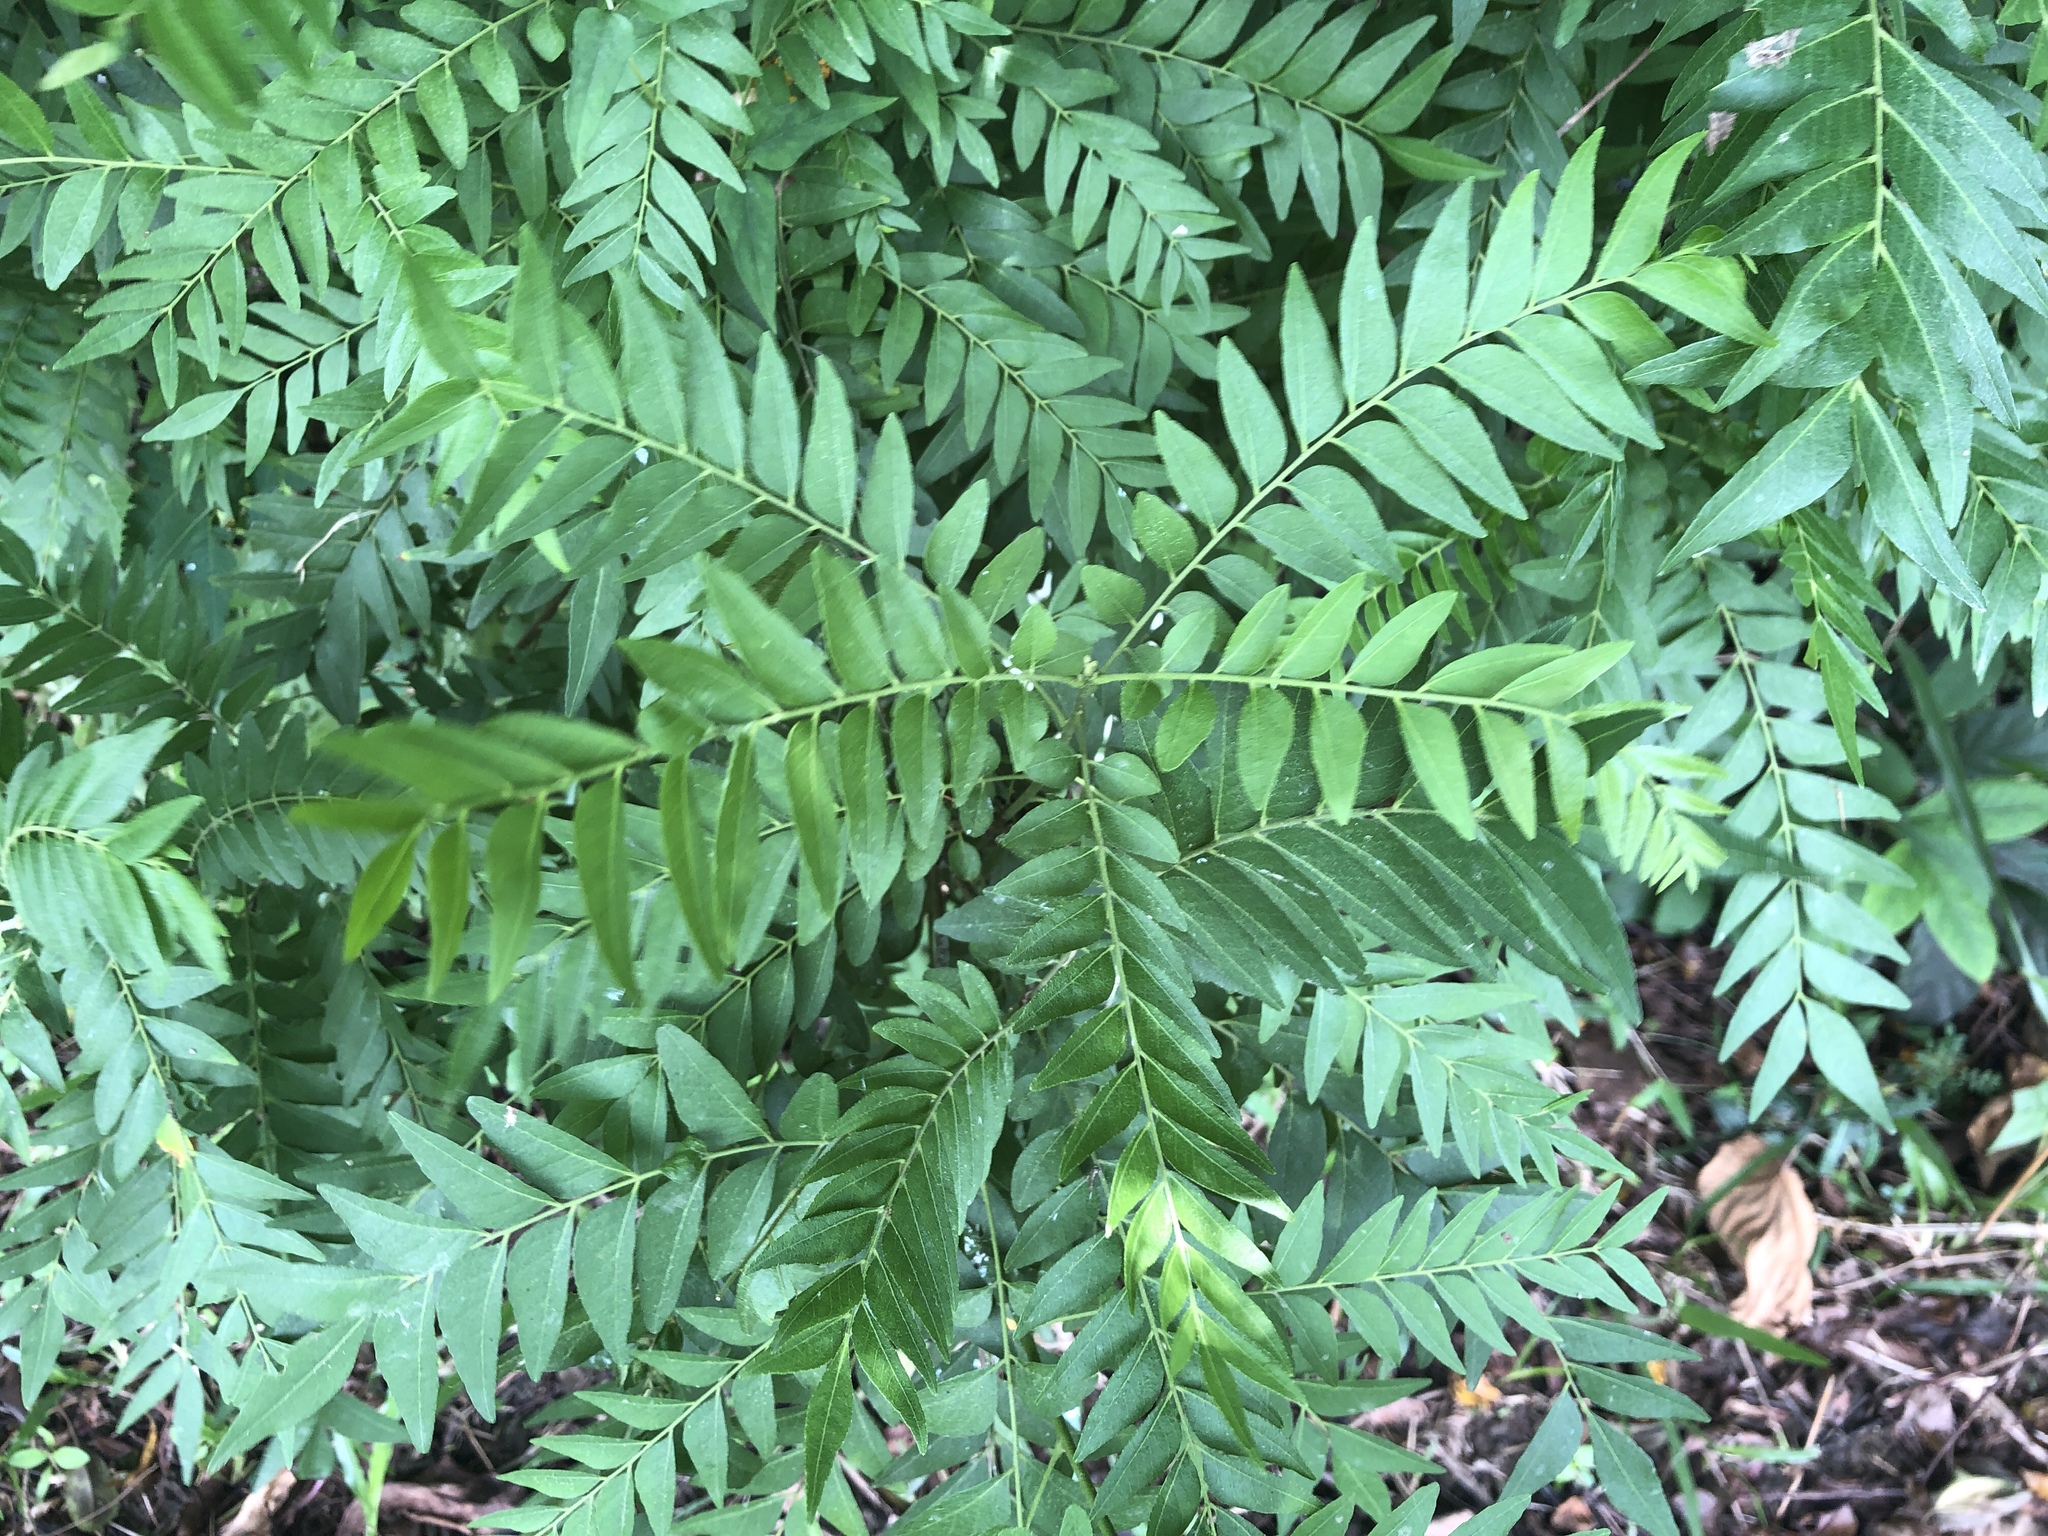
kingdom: Plantae
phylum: Tracheophyta
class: Magnoliopsida
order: Sapindales
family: Rutaceae
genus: Clausena
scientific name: Clausena excavata
